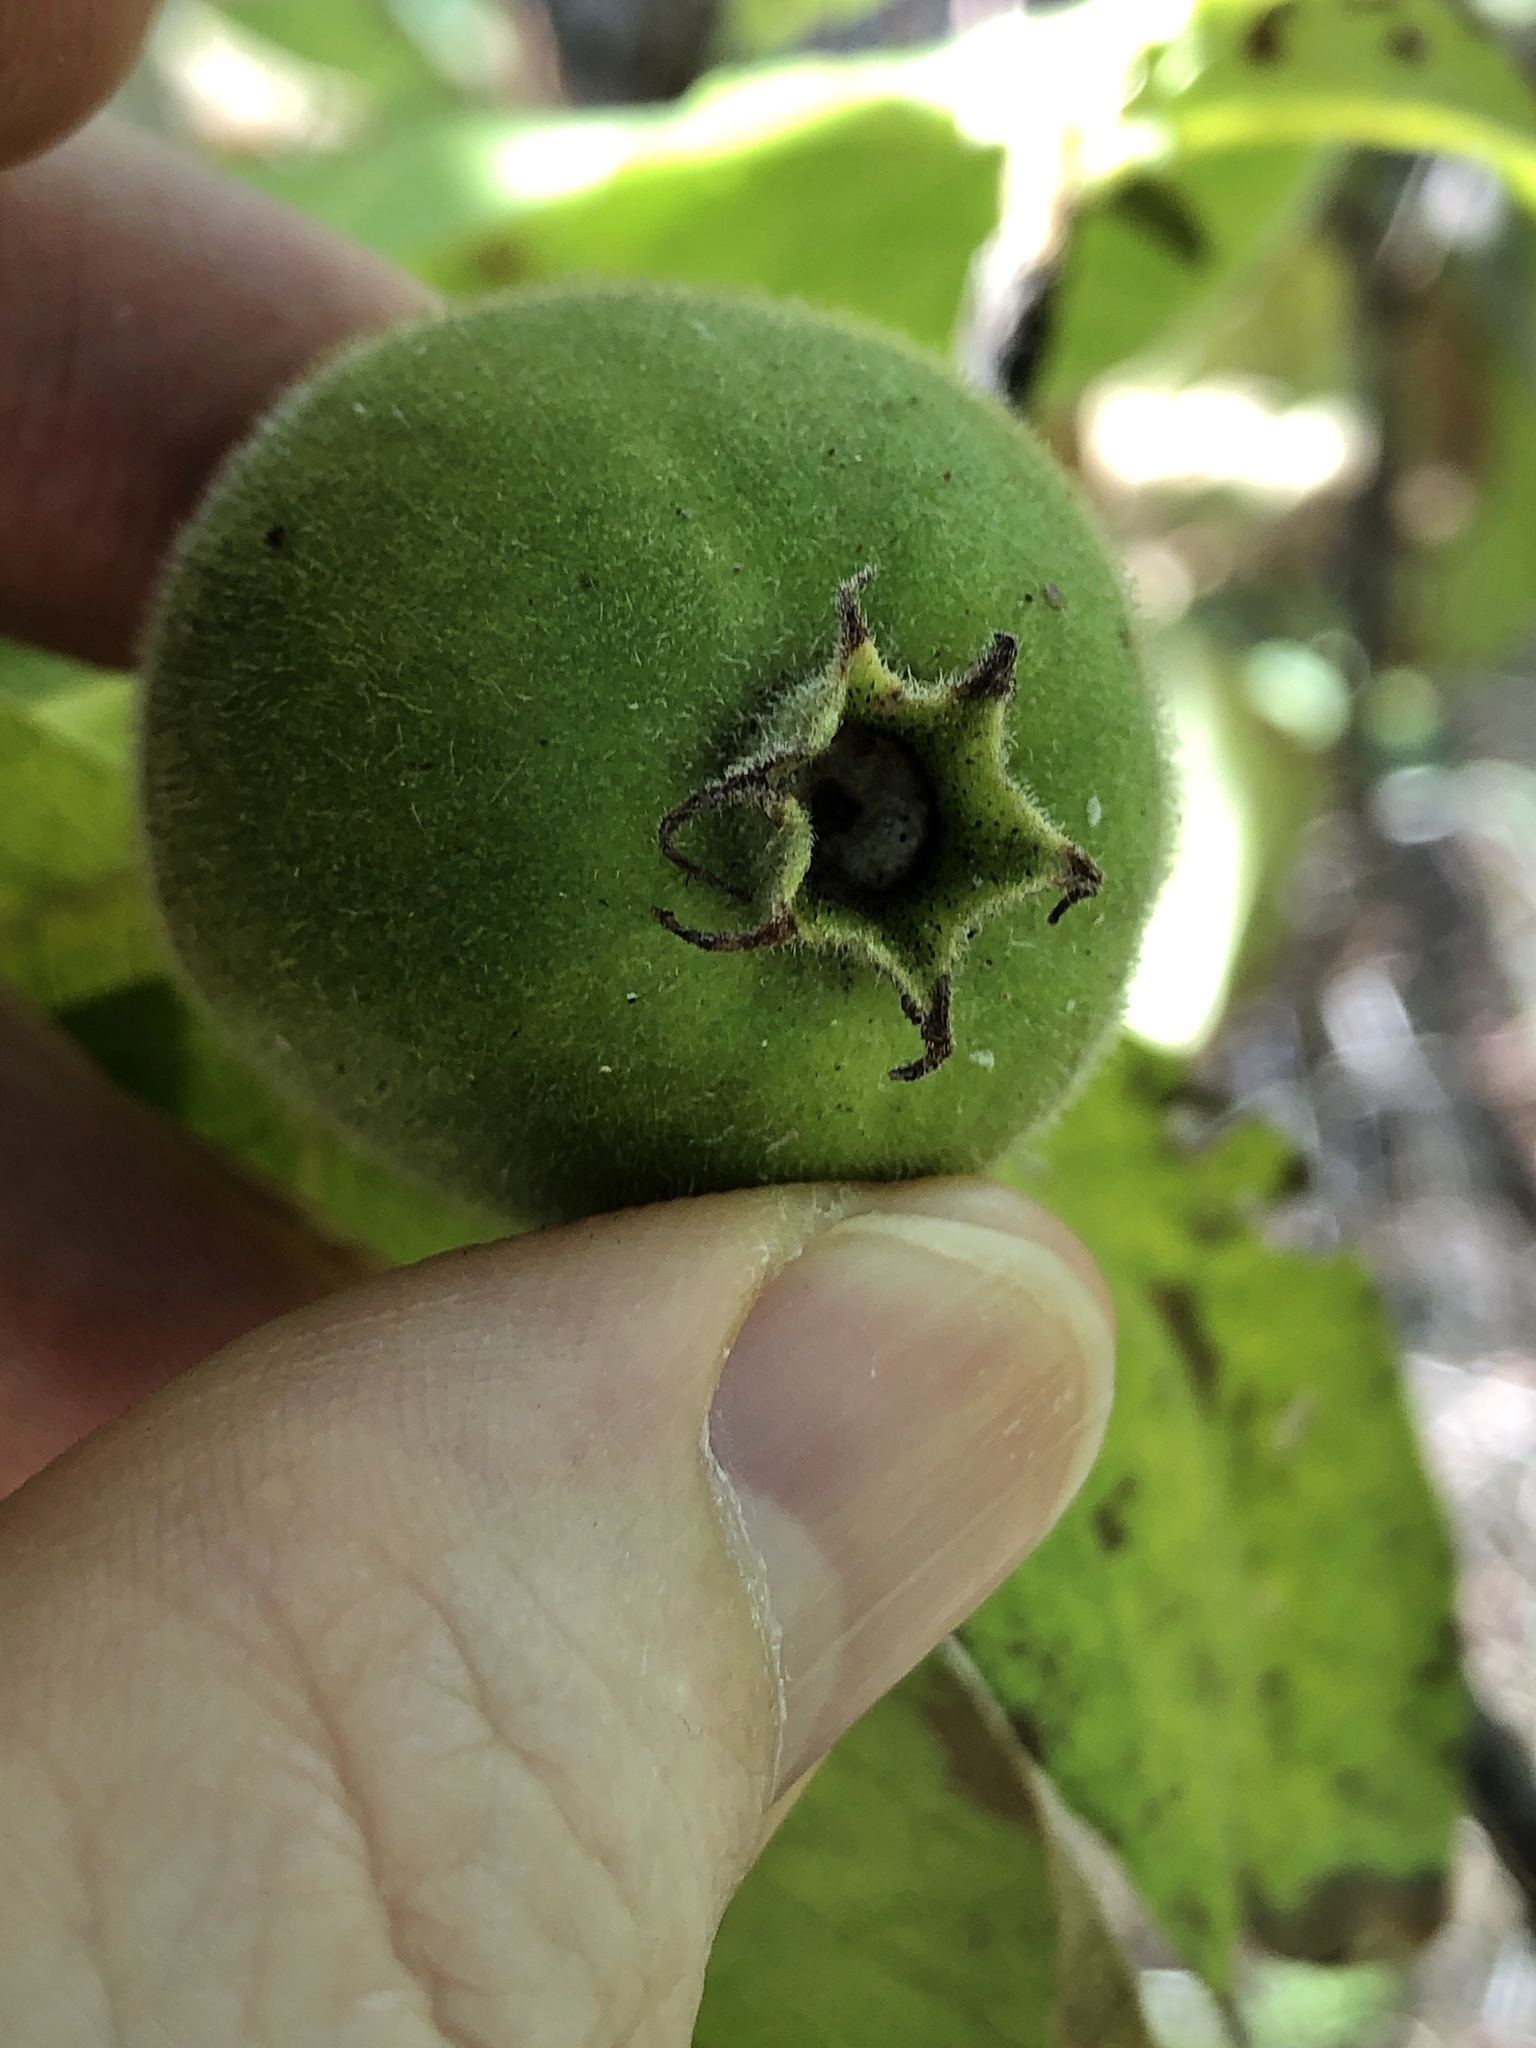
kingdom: Plantae
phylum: Tracheophyta
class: Magnoliopsida
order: Gentianales
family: Rubiaceae
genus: Larsenaikia
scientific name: Larsenaikia ochreata
